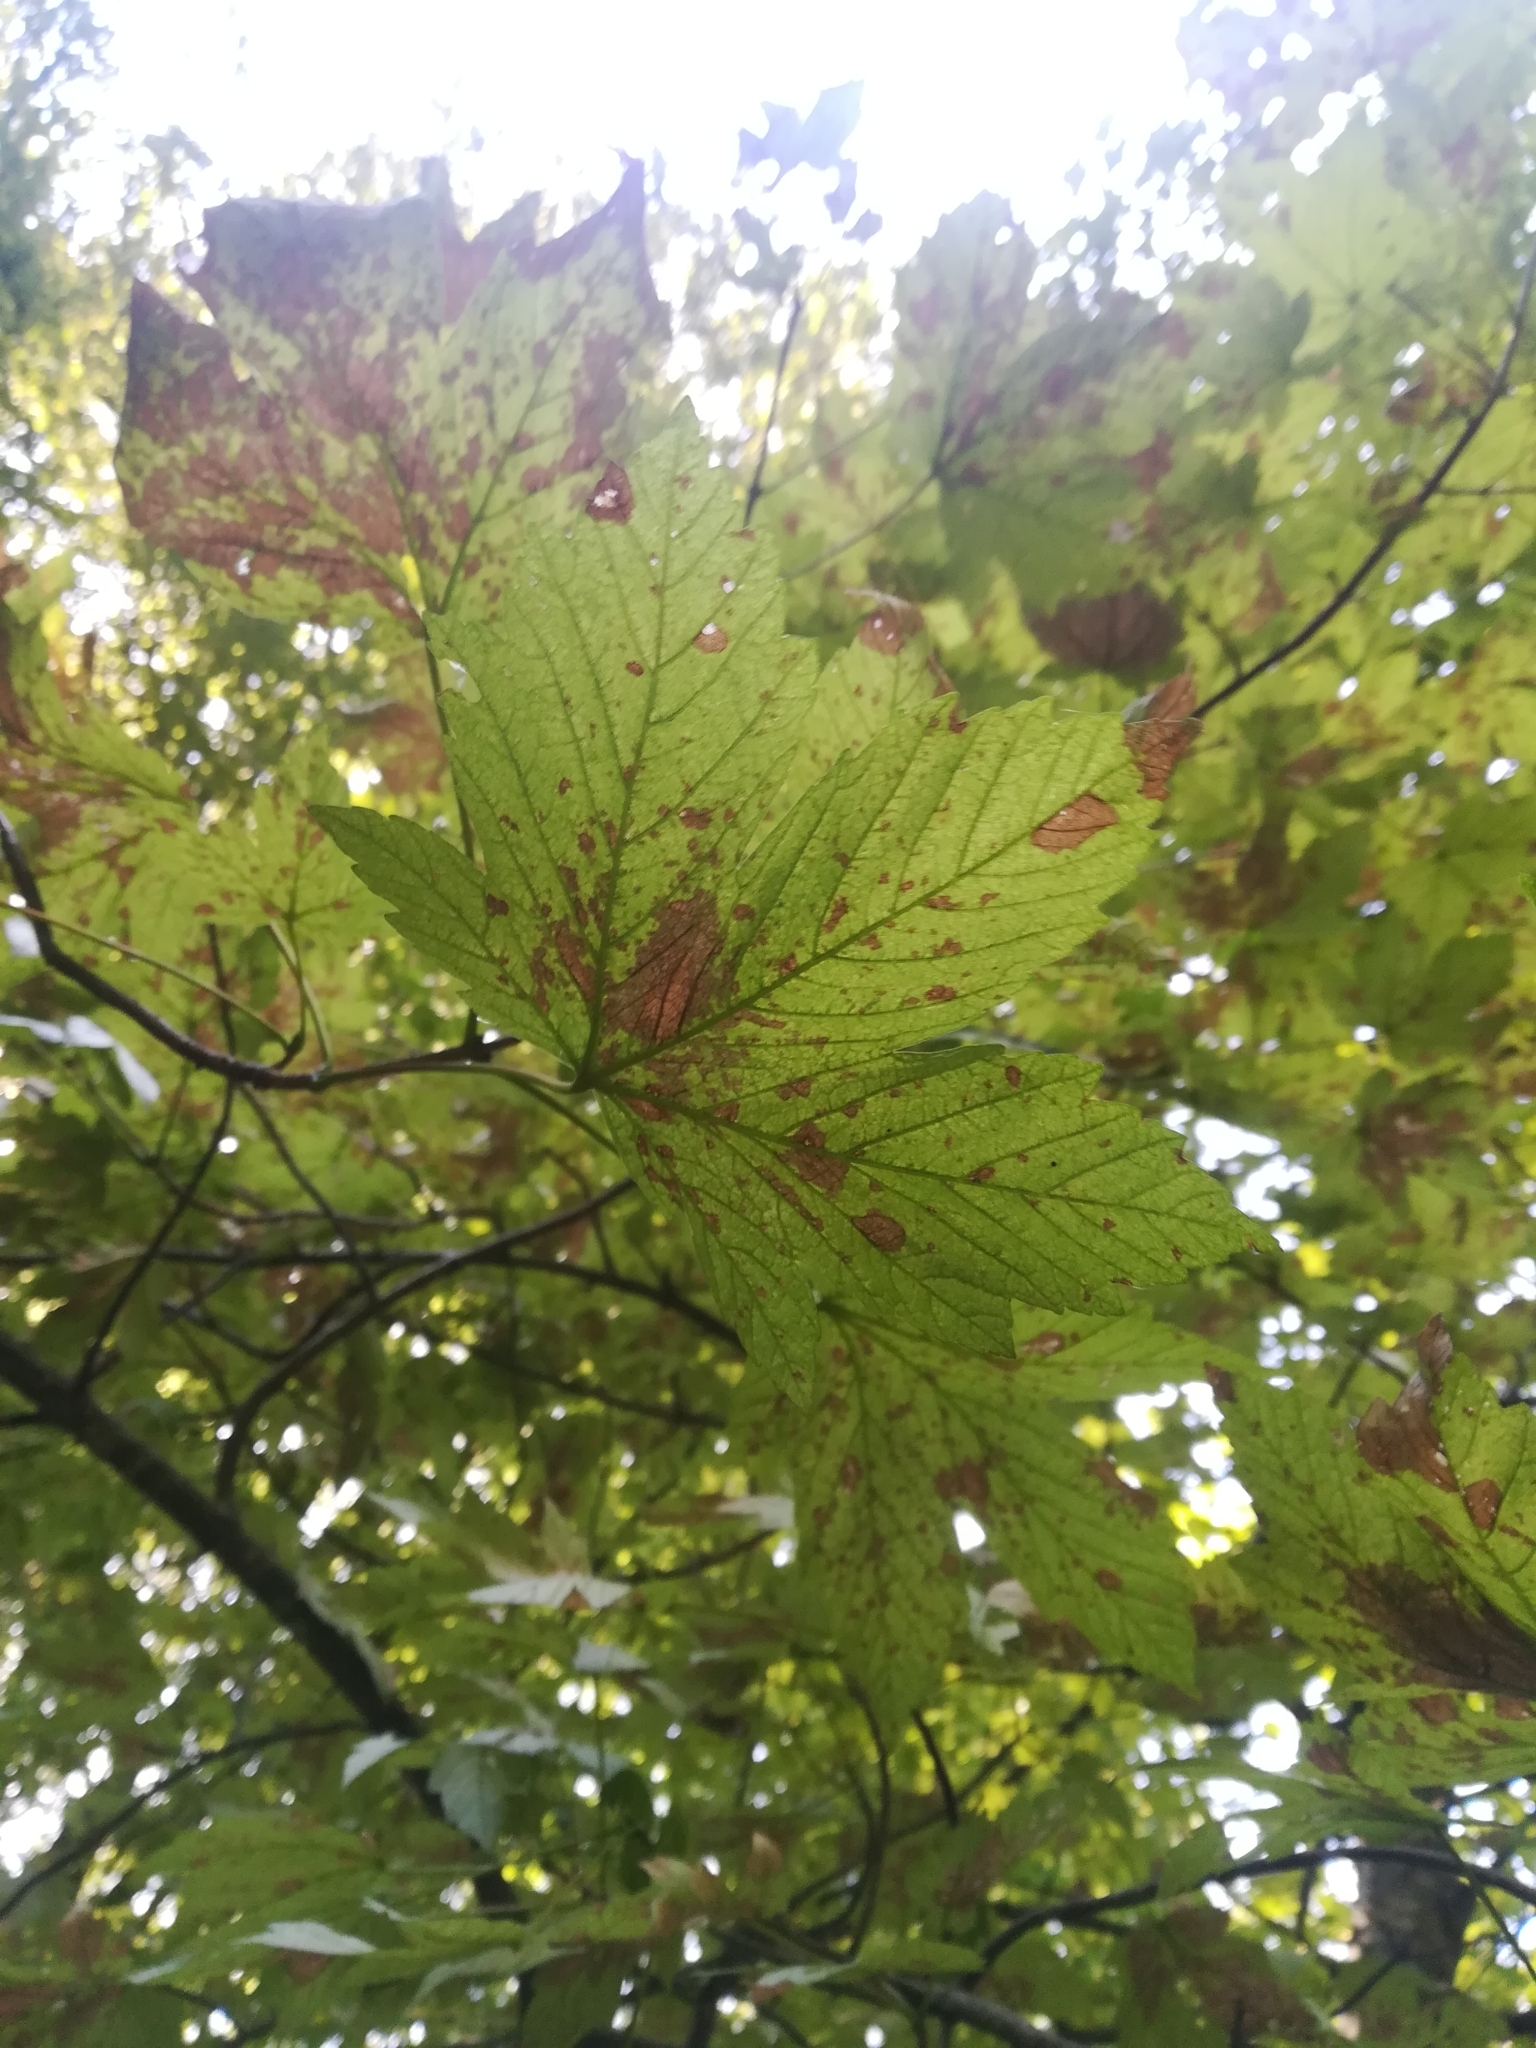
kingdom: Plantae
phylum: Tracheophyta
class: Magnoliopsida
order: Sapindales
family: Sapindaceae
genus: Acer
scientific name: Acer pseudoplatanus
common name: Sycamore
